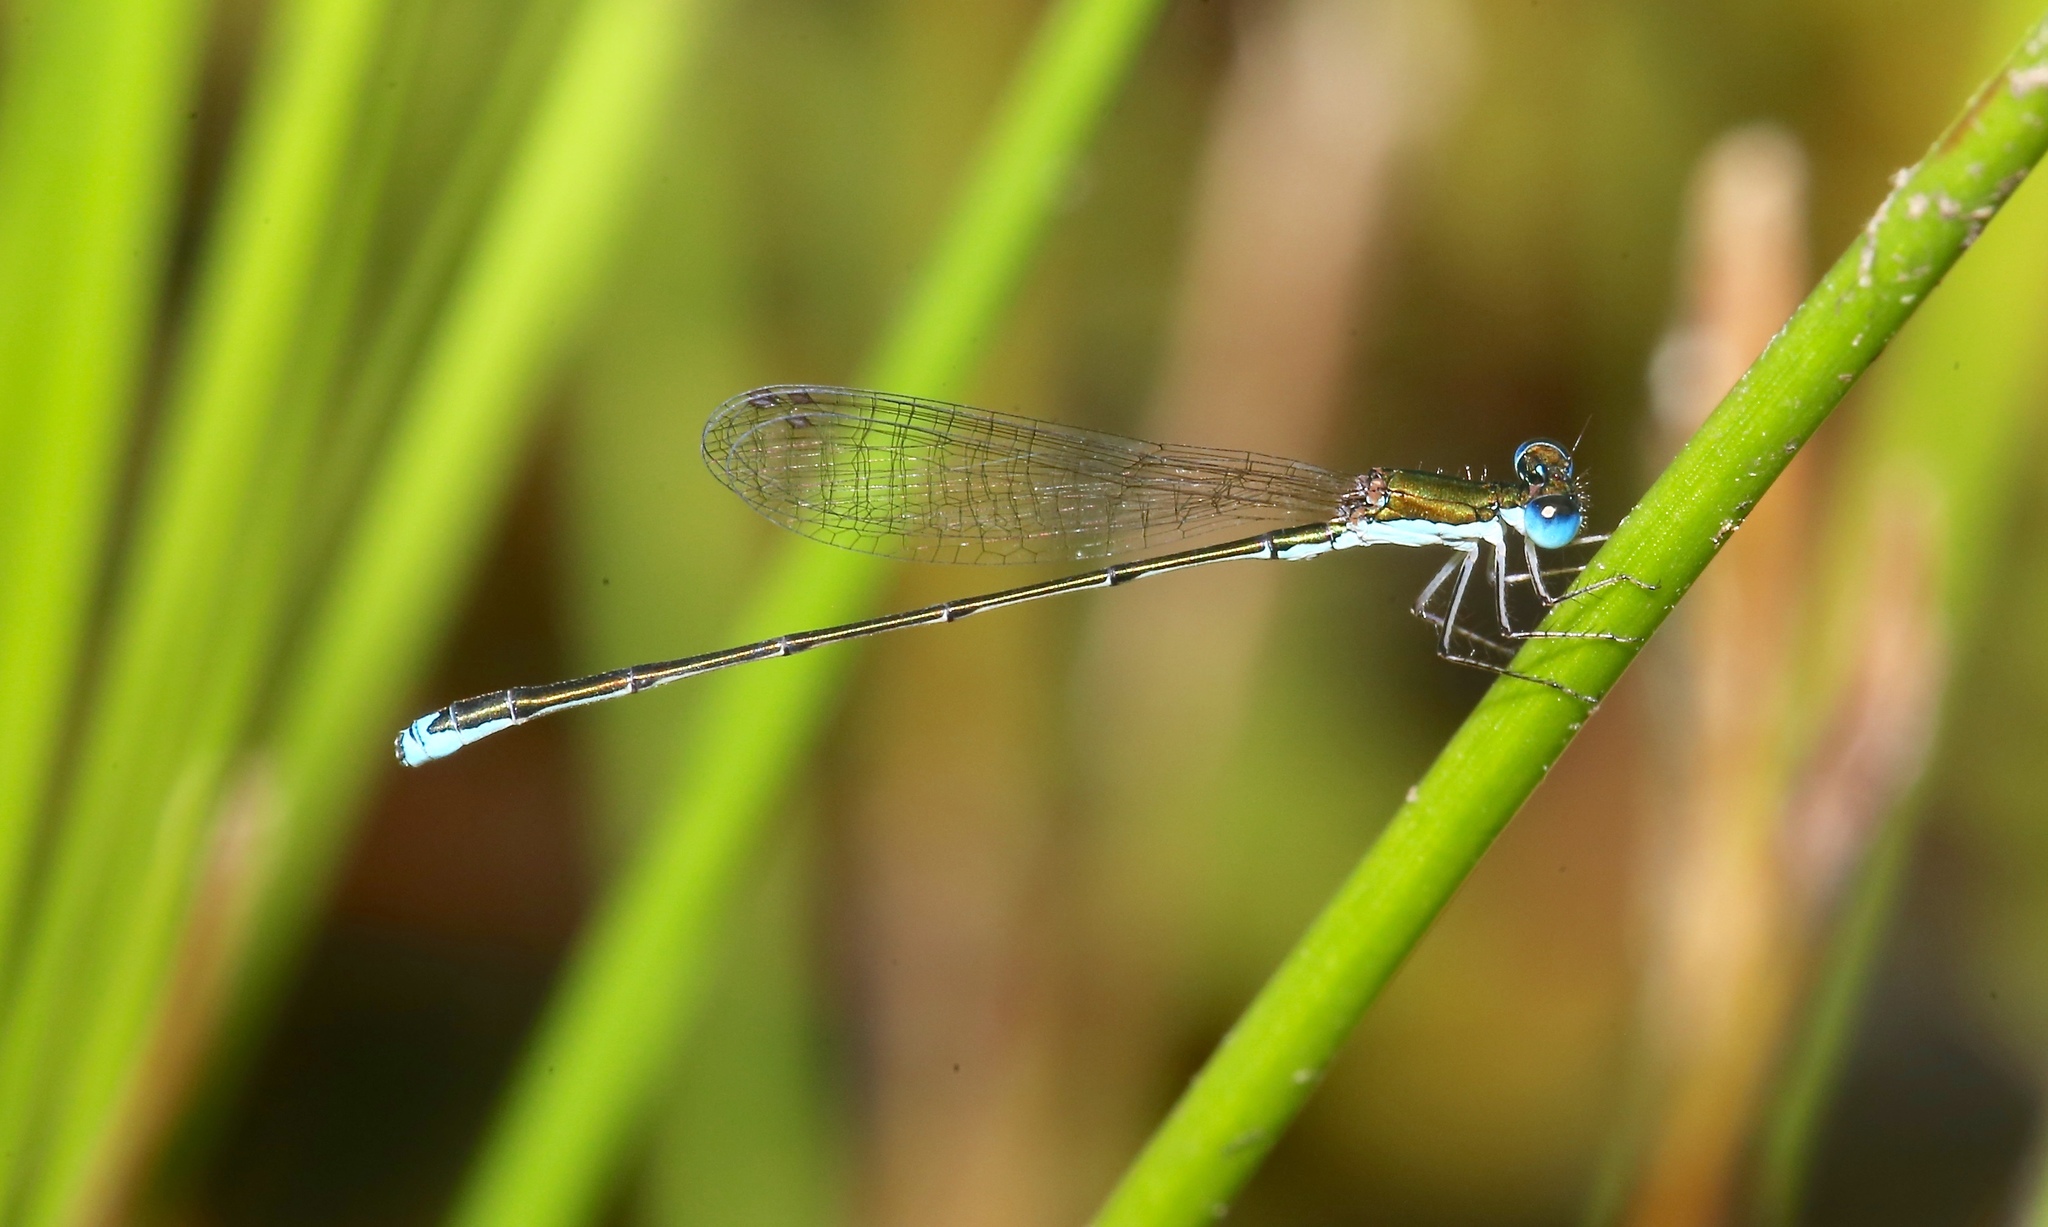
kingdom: Animalia
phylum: Arthropoda
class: Insecta
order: Odonata
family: Coenagrionidae
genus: Nehalennia
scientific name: Nehalennia integricollis
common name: Southern sprite
